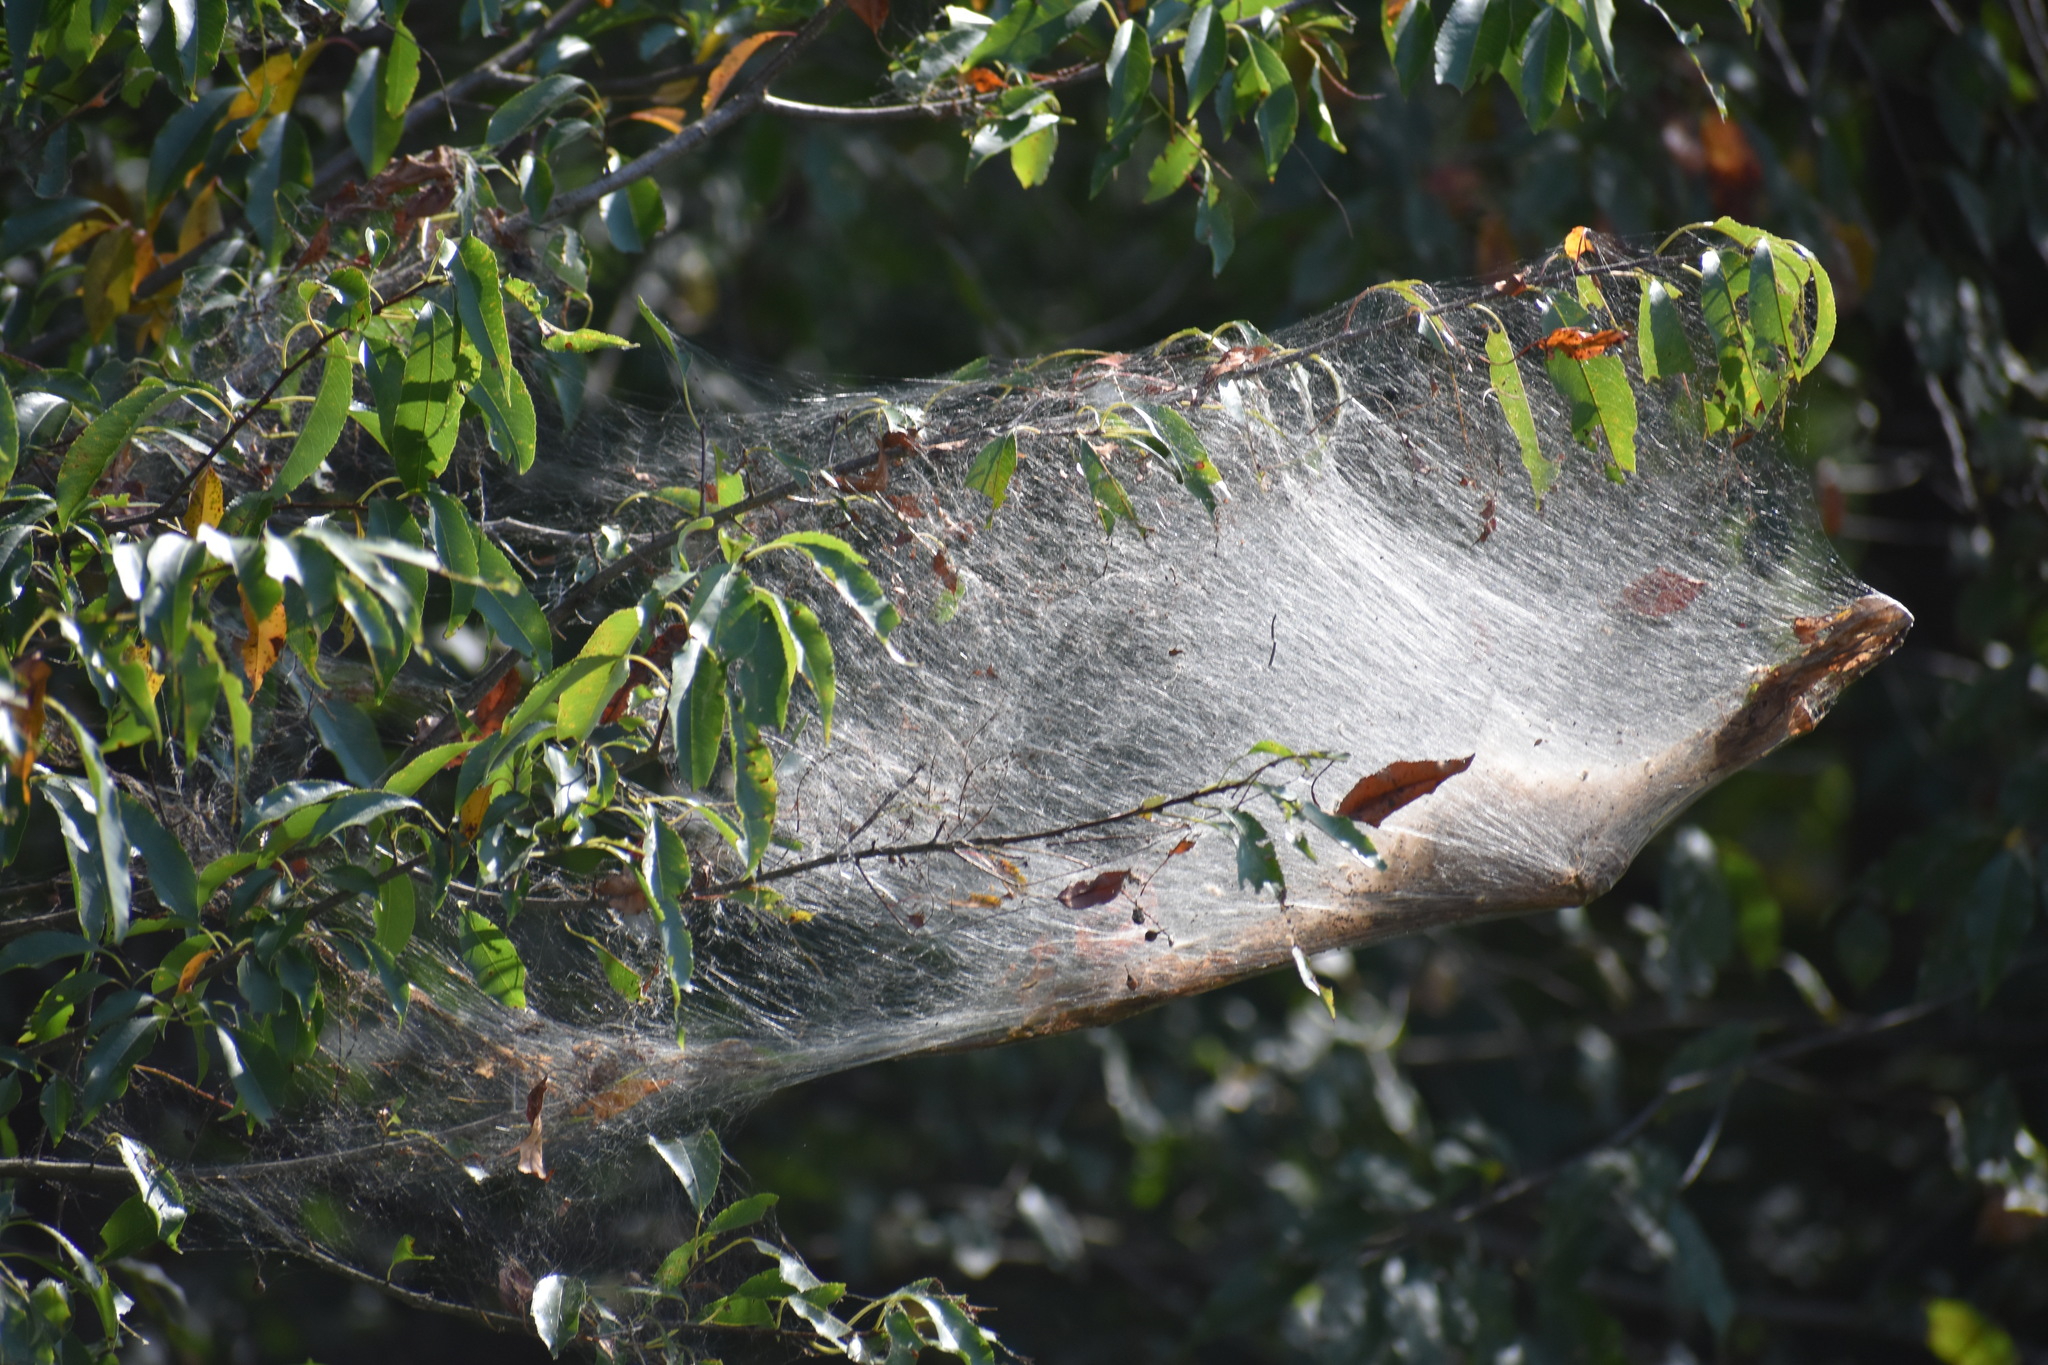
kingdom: Animalia
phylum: Arthropoda
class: Insecta
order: Lepidoptera
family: Erebidae
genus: Hyphantria
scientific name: Hyphantria cunea
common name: American white moth
